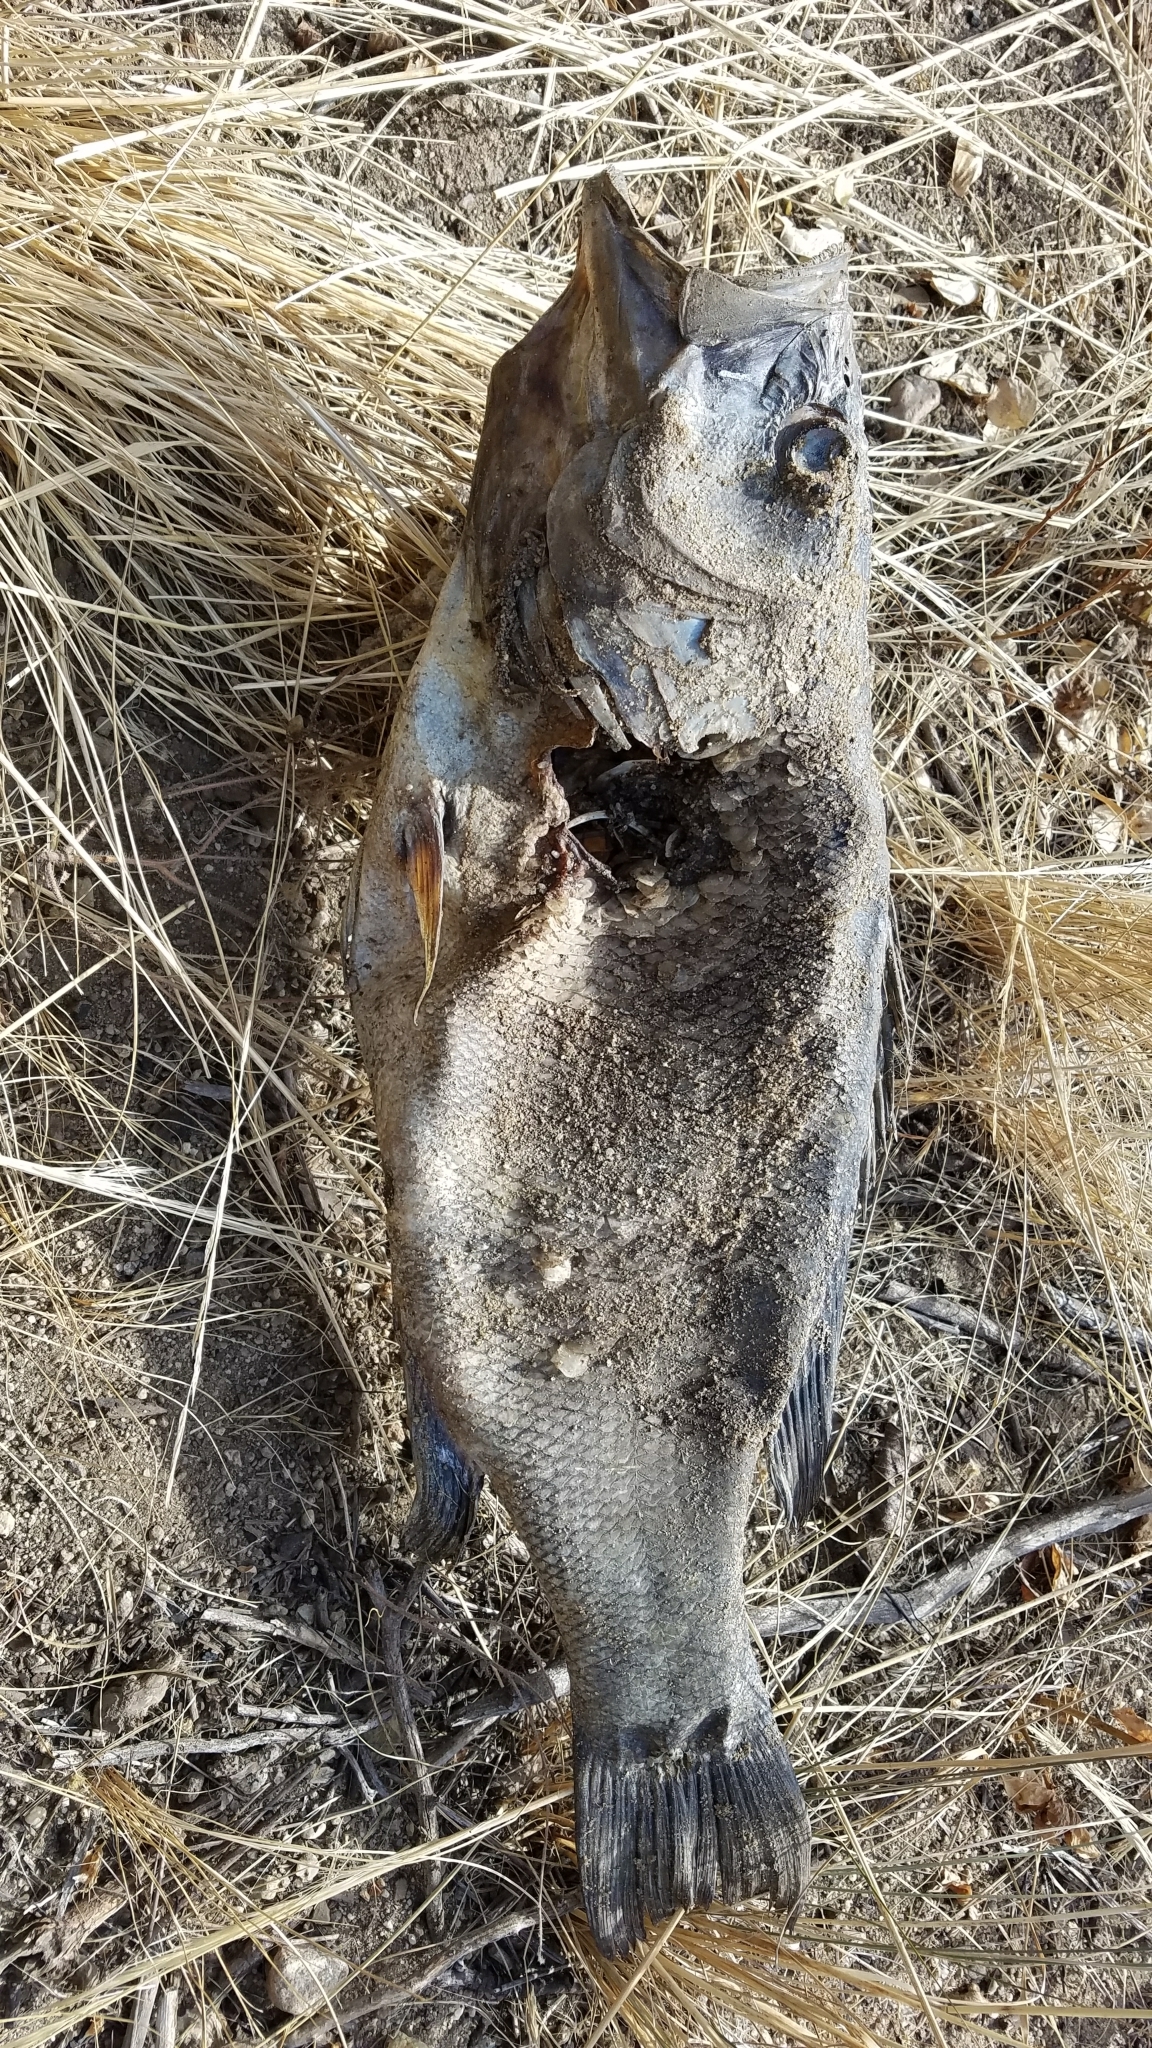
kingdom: Animalia
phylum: Chordata
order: Perciformes
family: Centrarchidae
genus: Micropterus
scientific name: Micropterus
